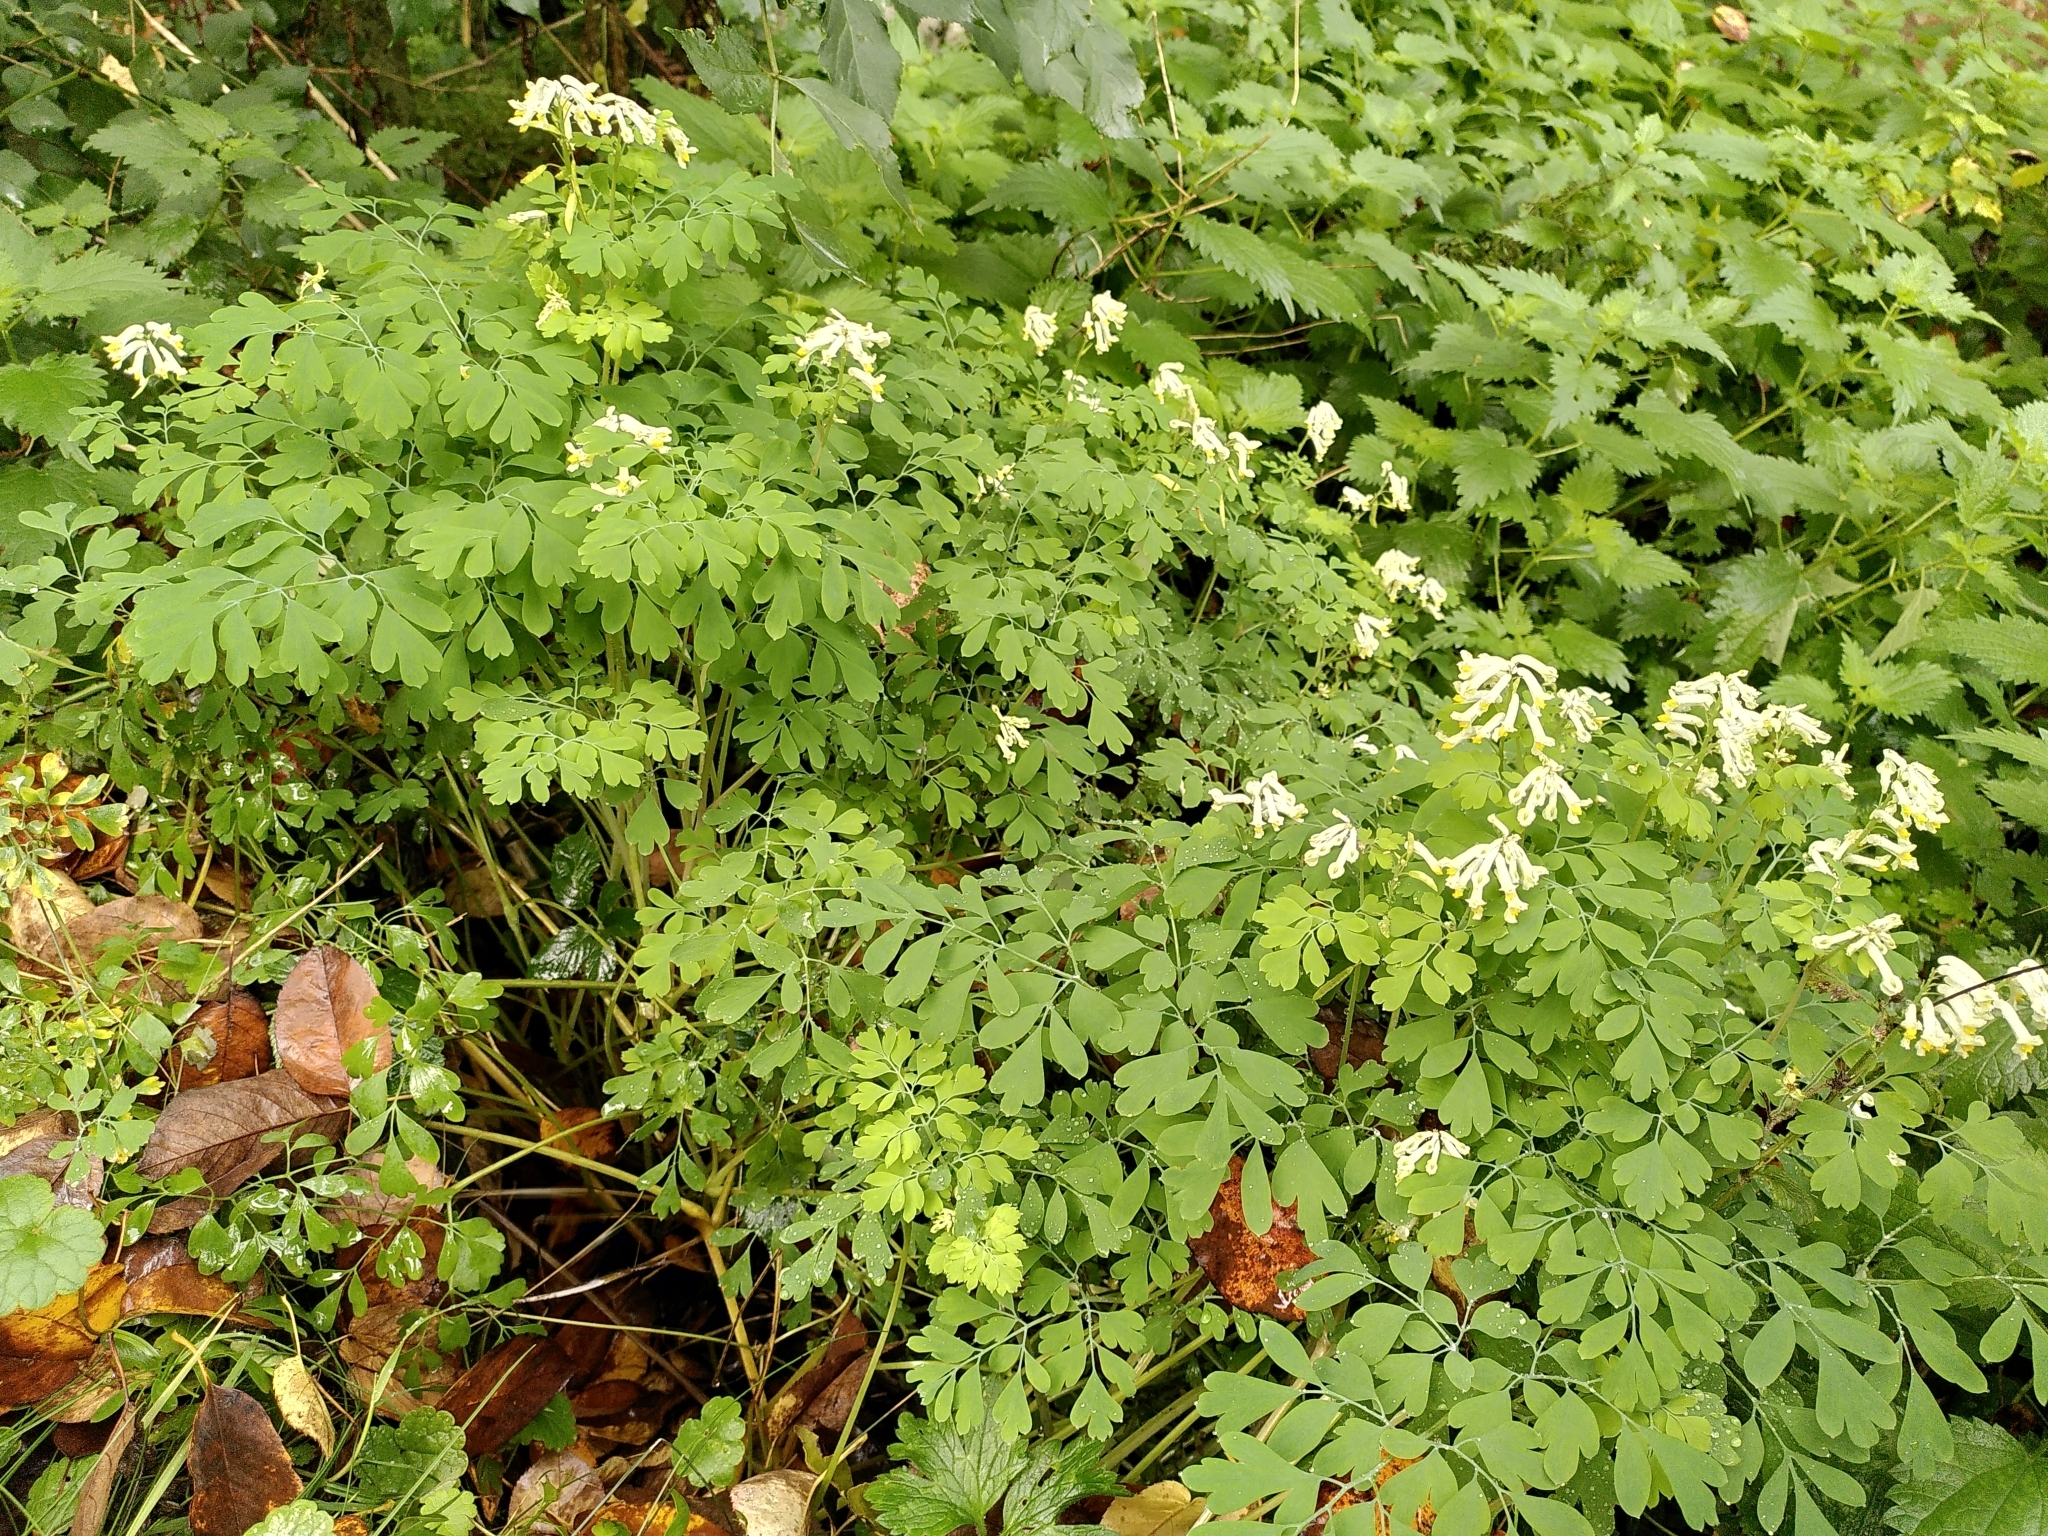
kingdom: Plantae
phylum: Tracheophyta
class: Magnoliopsida
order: Ranunculales
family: Papaveraceae
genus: Pseudofumaria
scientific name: Pseudofumaria alba
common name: Pale corydalis
